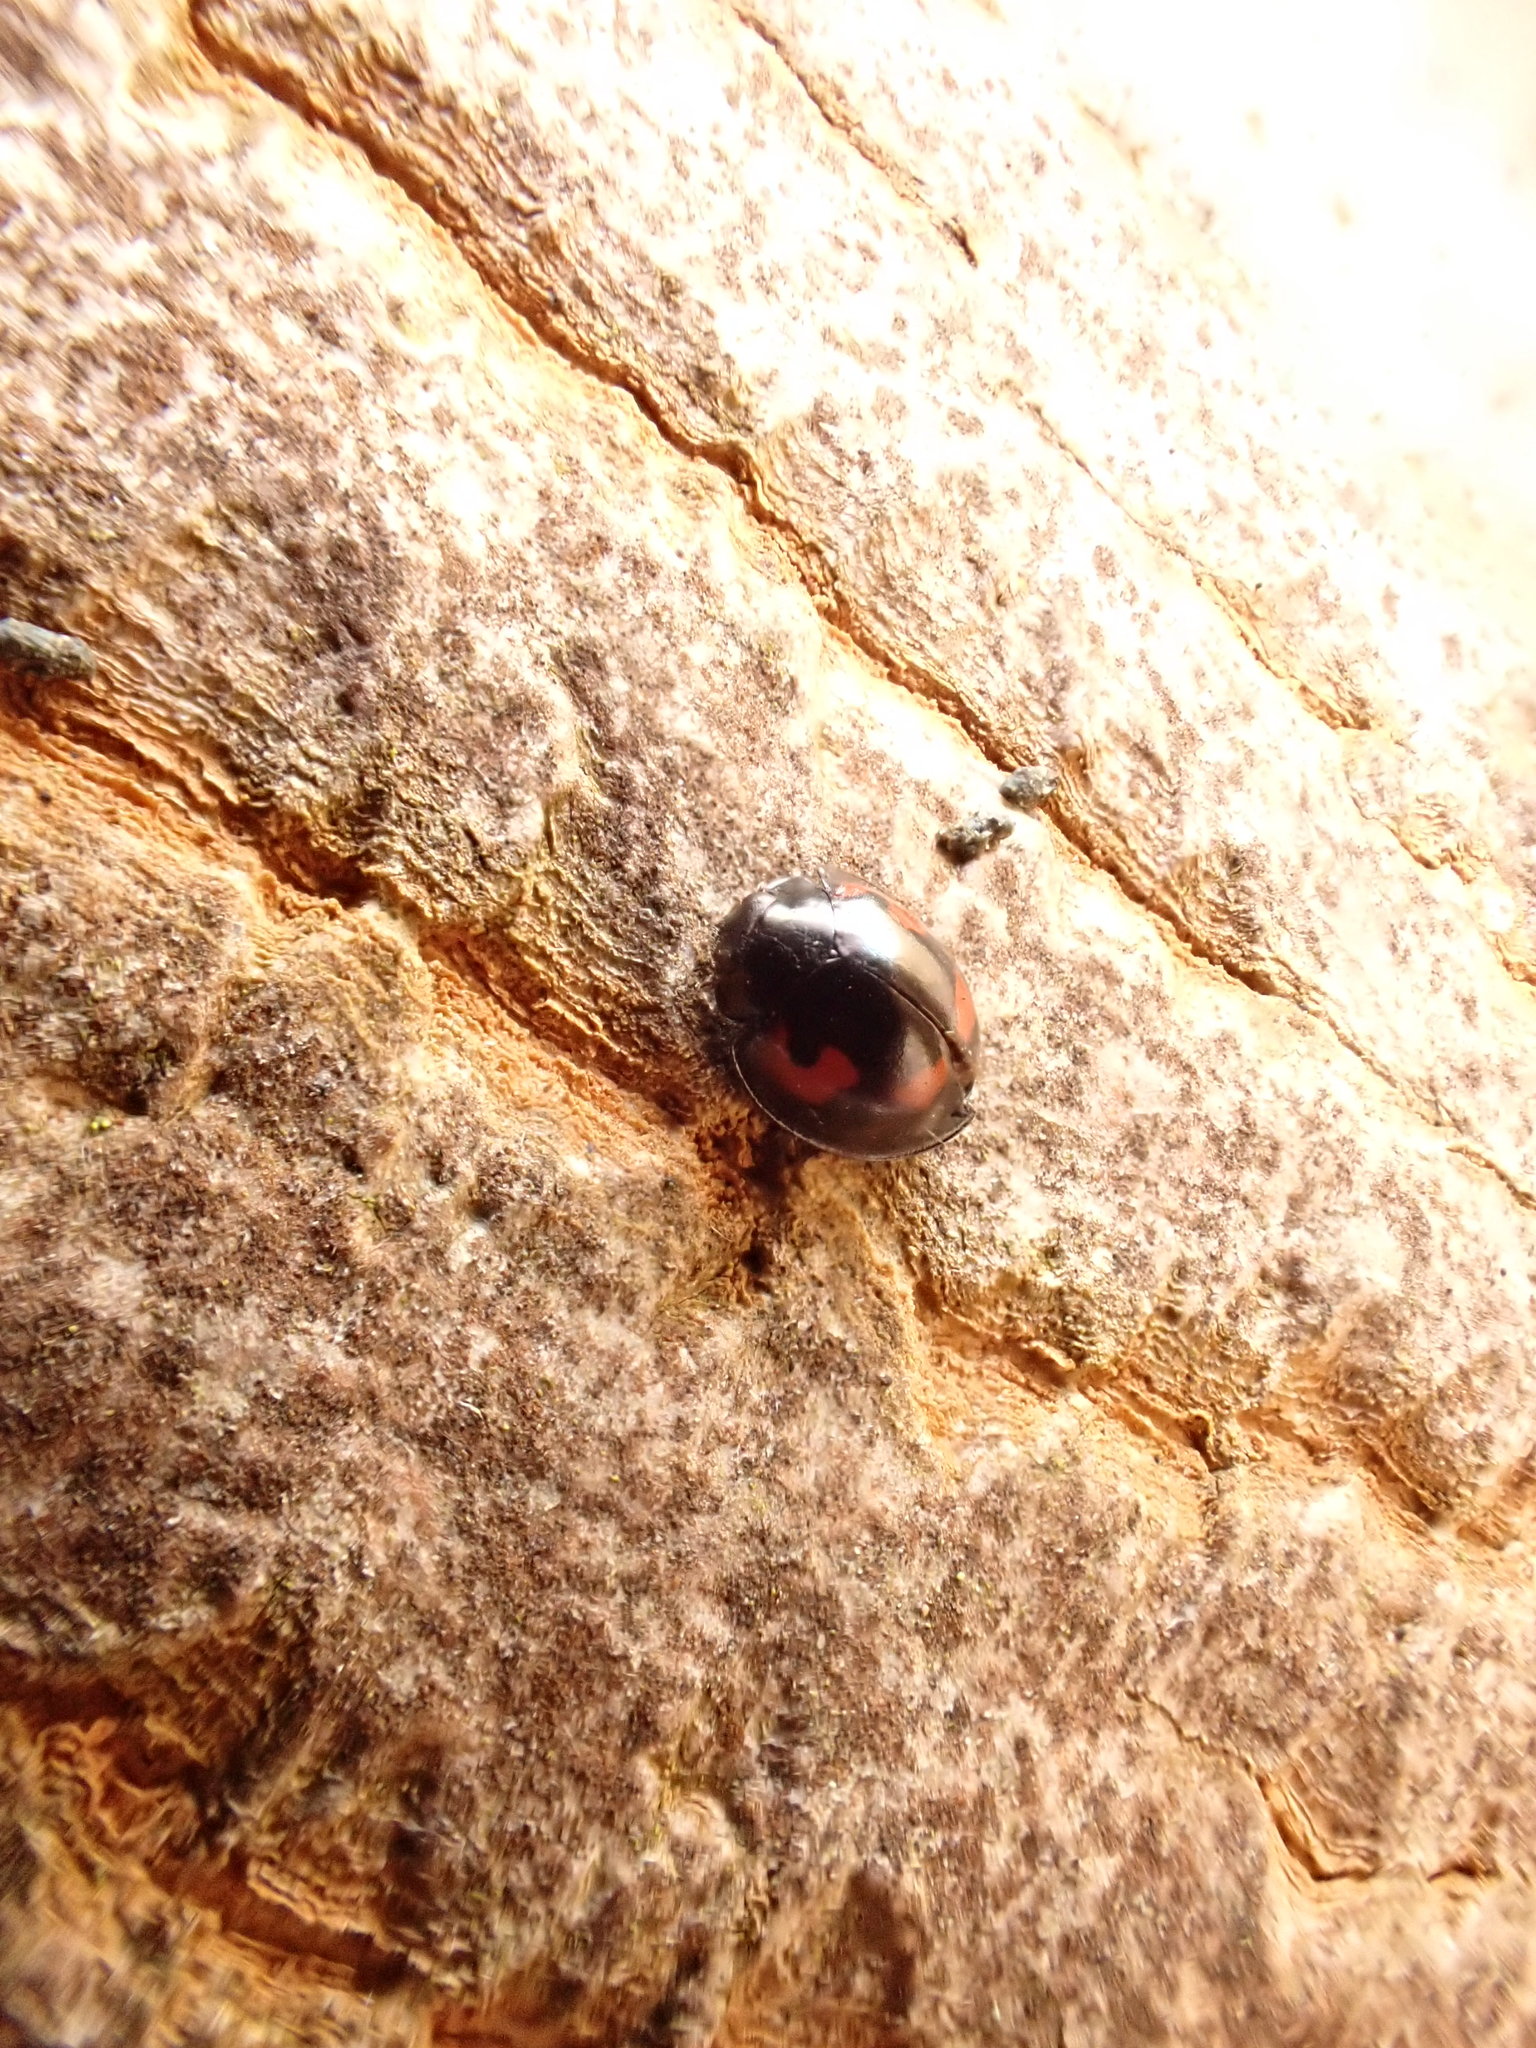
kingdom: Animalia
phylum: Arthropoda
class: Insecta
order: Coleoptera
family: Coccinellidae
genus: Brumus
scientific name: Brumus quadripustulatus
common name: Ladybird beetle
